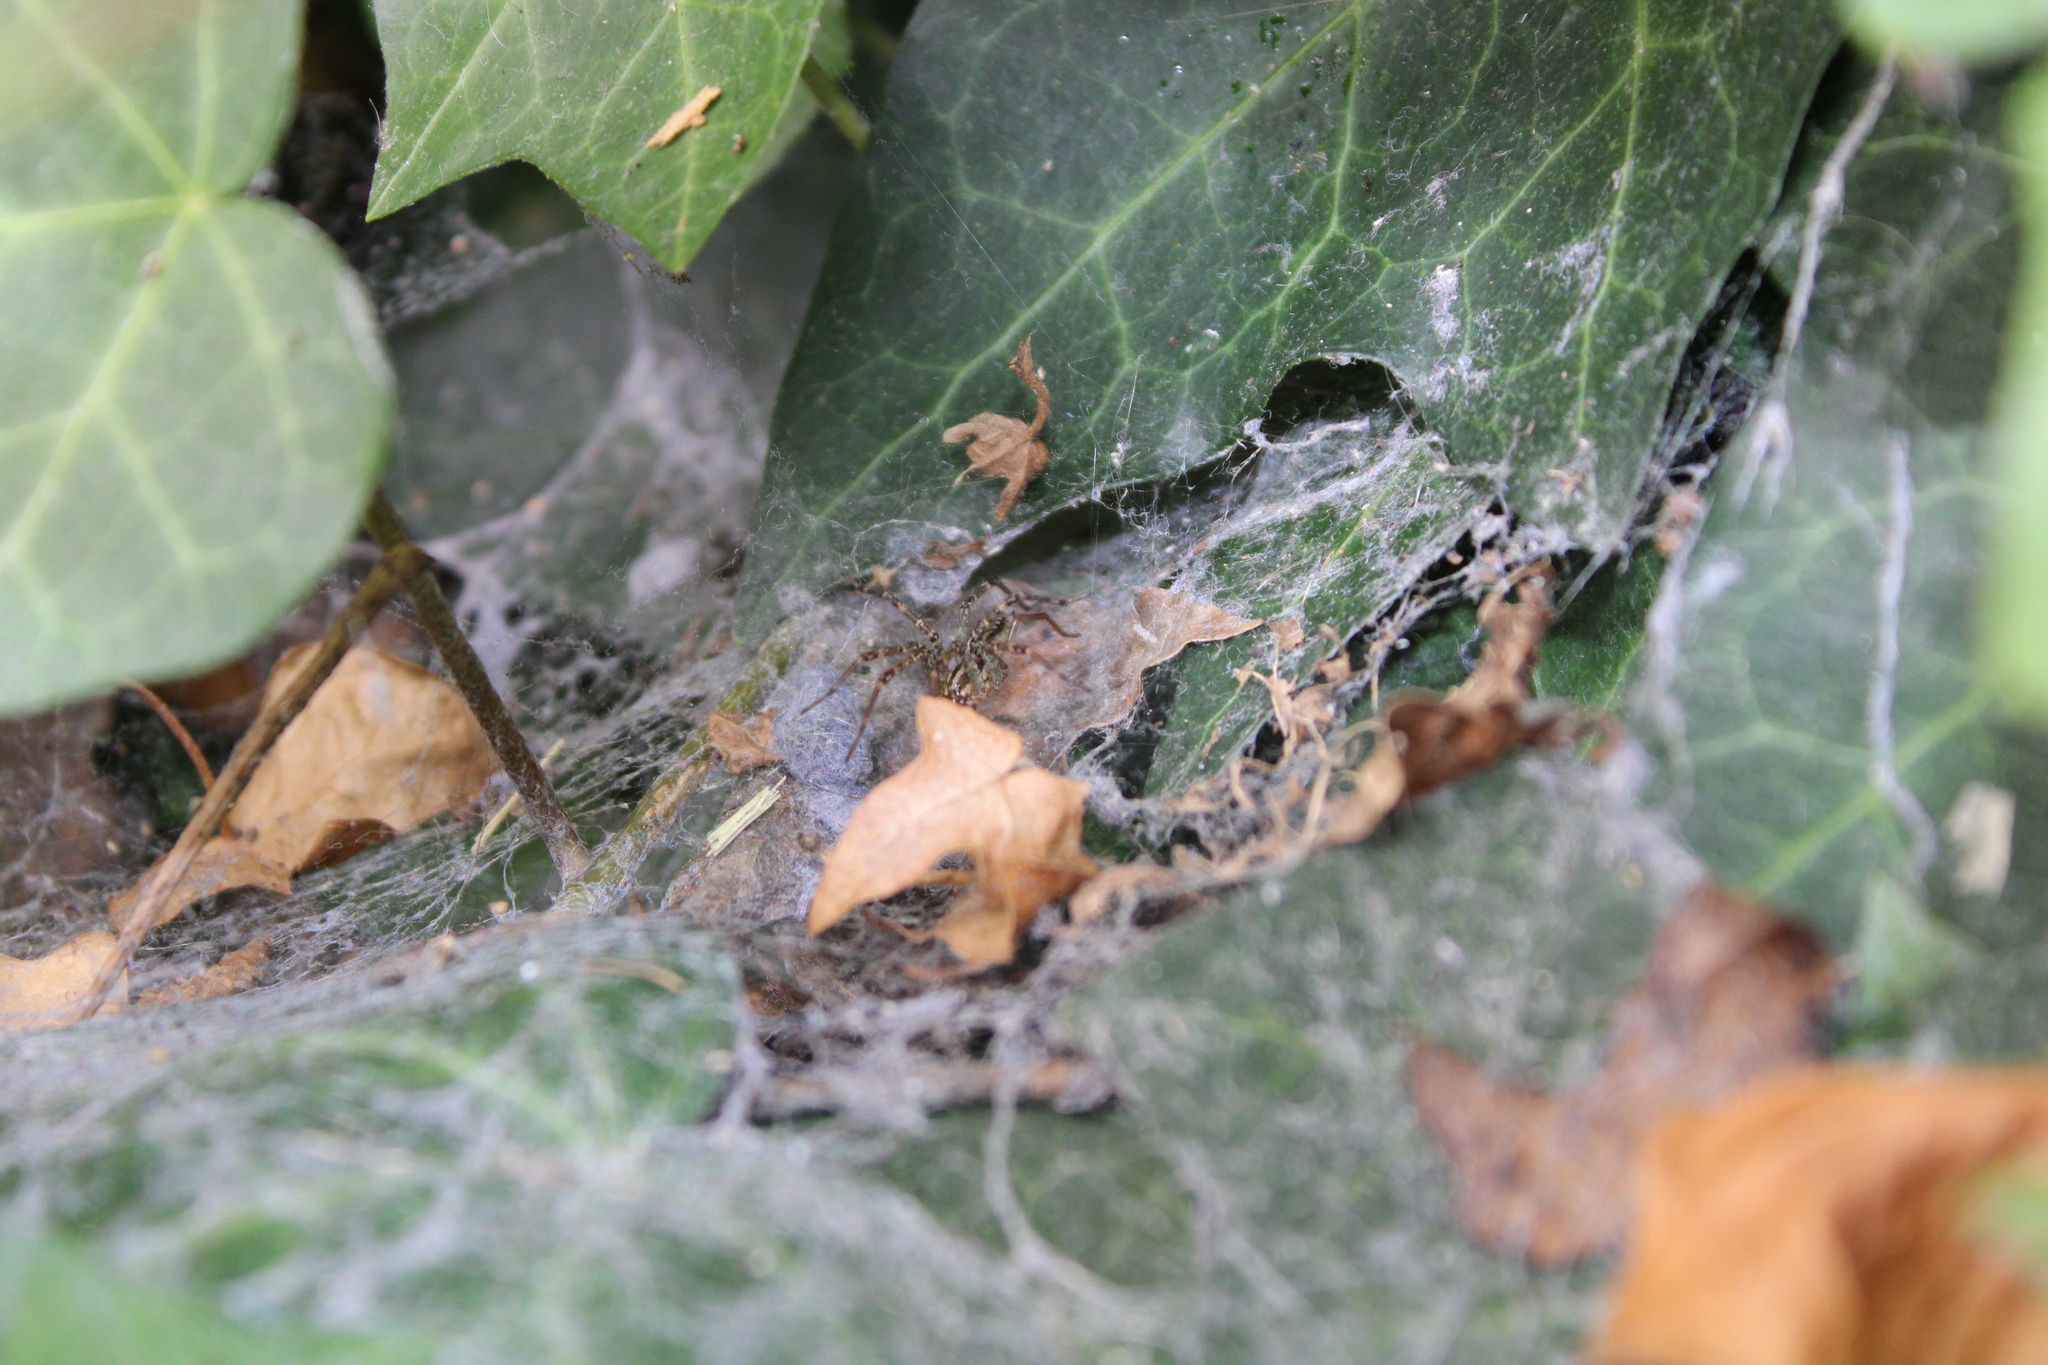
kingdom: Animalia
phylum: Arthropoda
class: Arachnida
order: Araneae
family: Agelenidae
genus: Agelenopsis
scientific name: Agelenopsis
